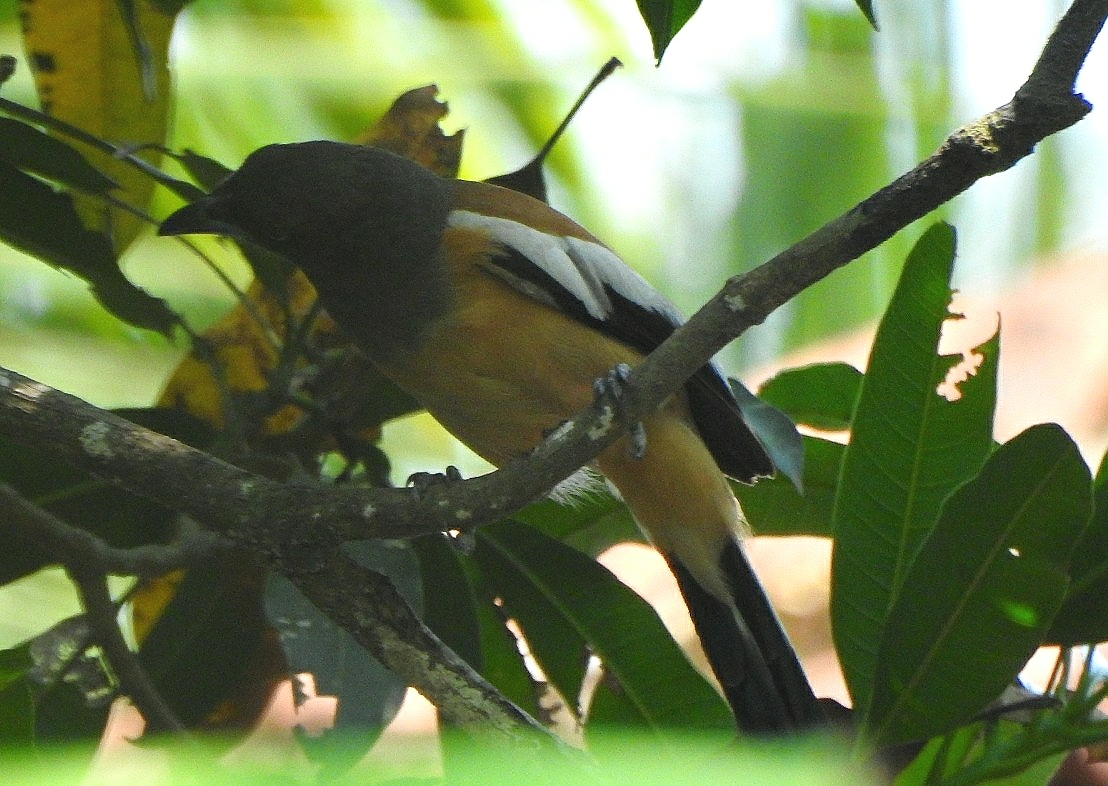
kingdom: Animalia
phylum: Chordata
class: Aves
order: Passeriformes
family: Corvidae
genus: Dendrocitta
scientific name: Dendrocitta vagabunda
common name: Rufous treepie
